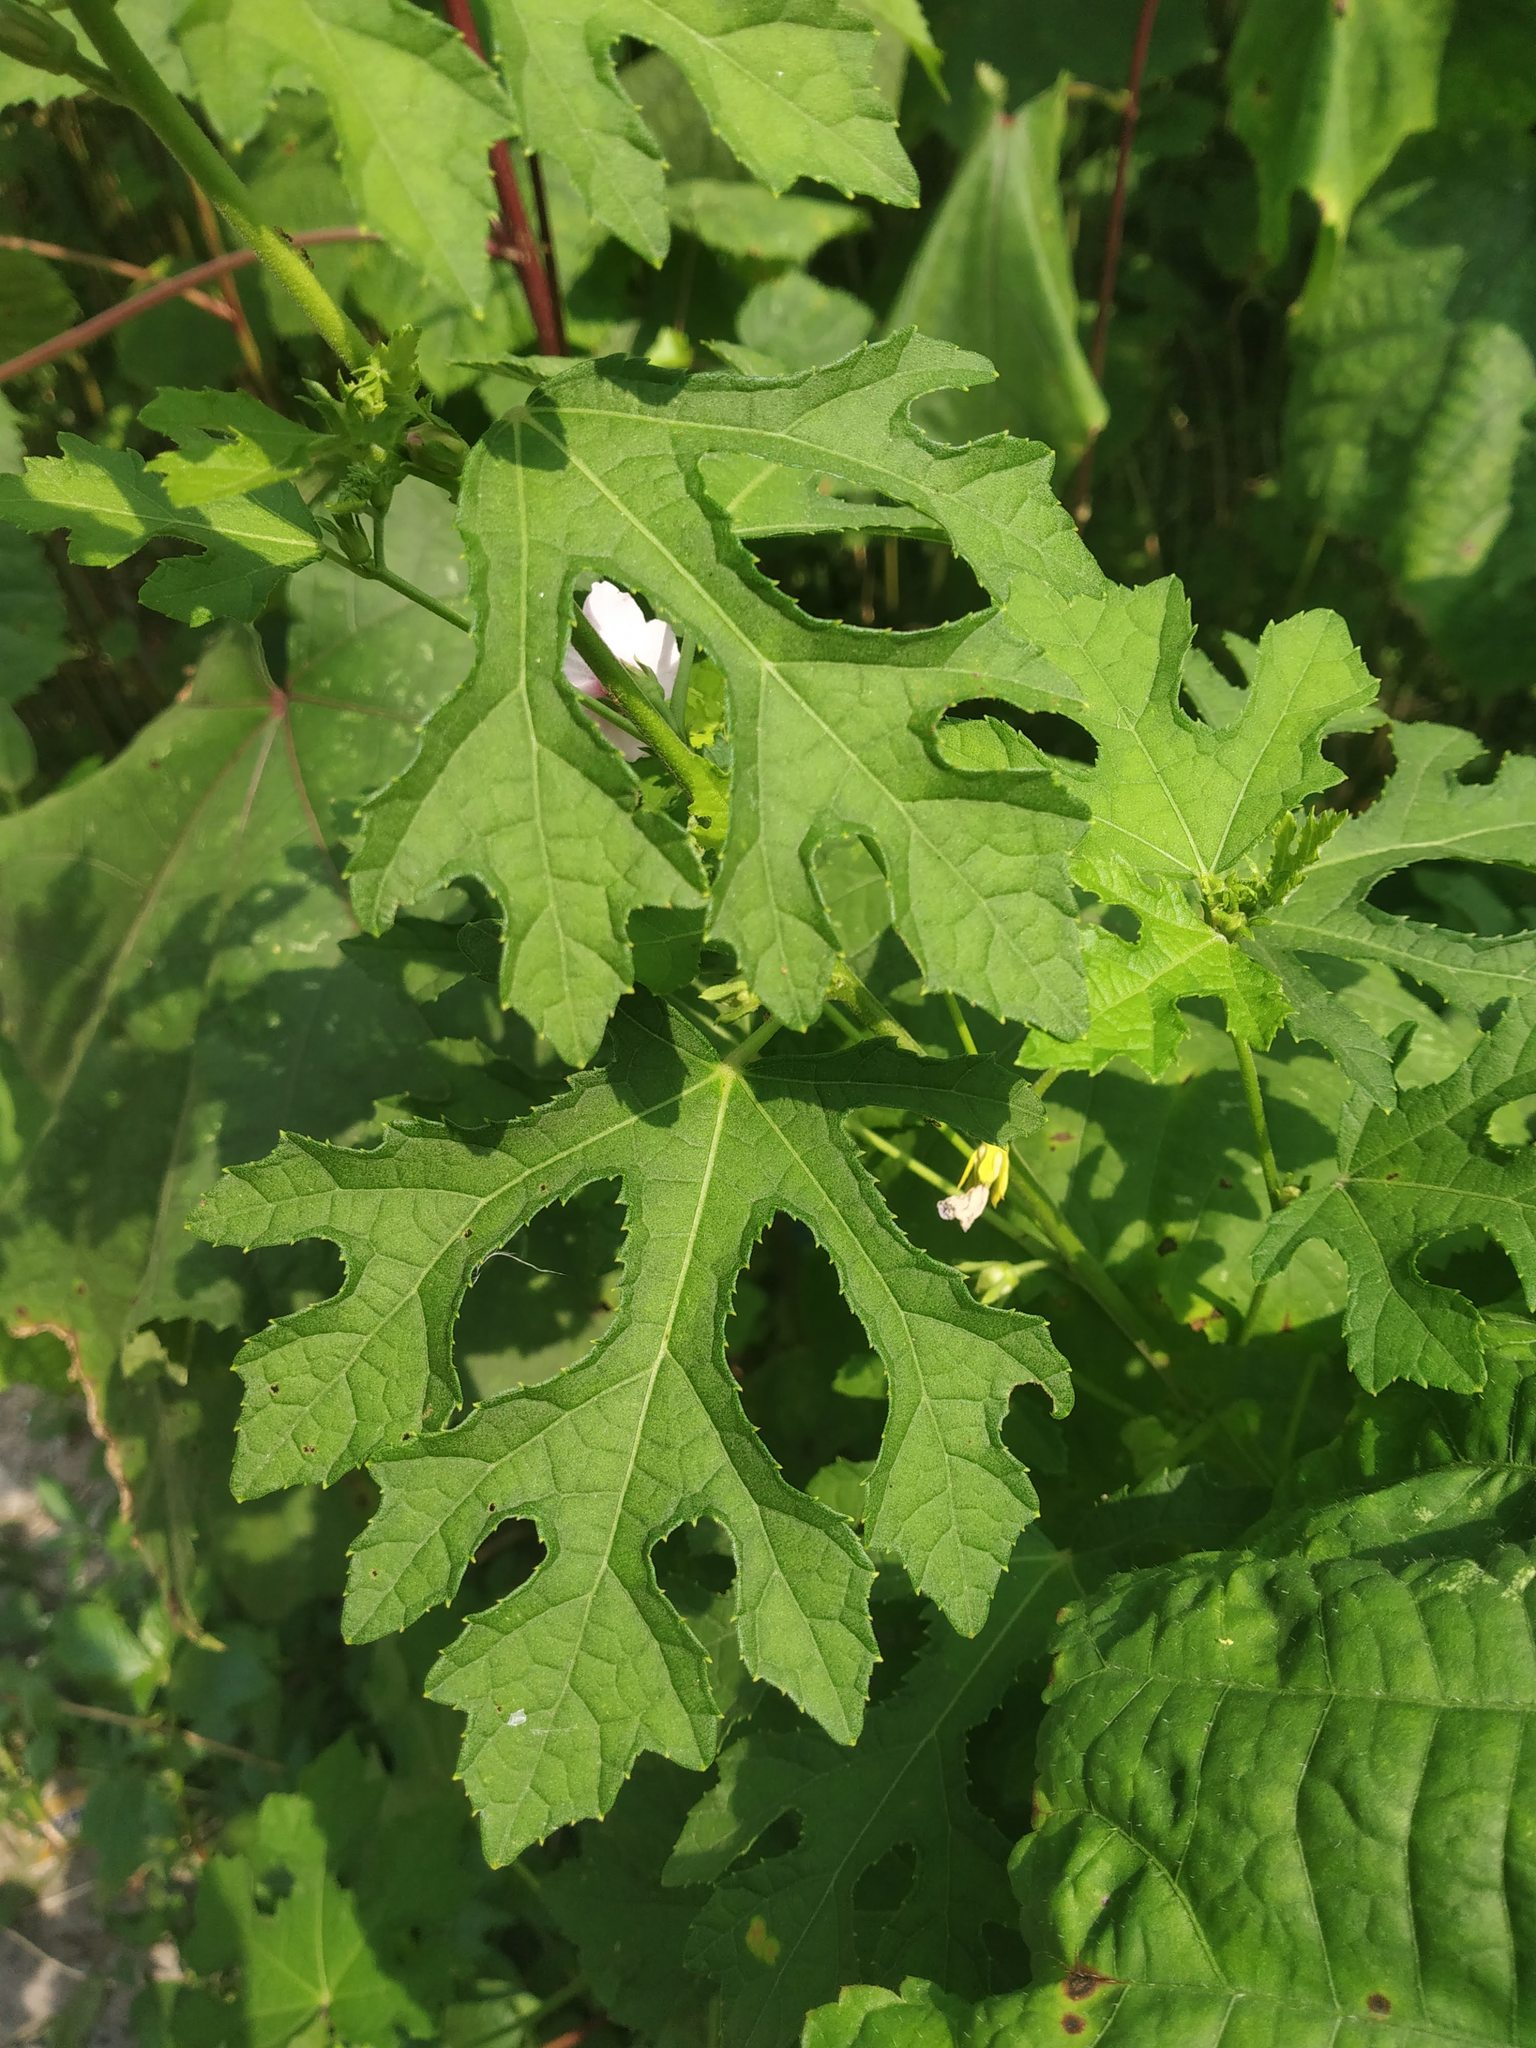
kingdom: Plantae
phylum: Tracheophyta
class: Magnoliopsida
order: Malvales
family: Malvaceae
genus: Urena
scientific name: Urena procumbens
